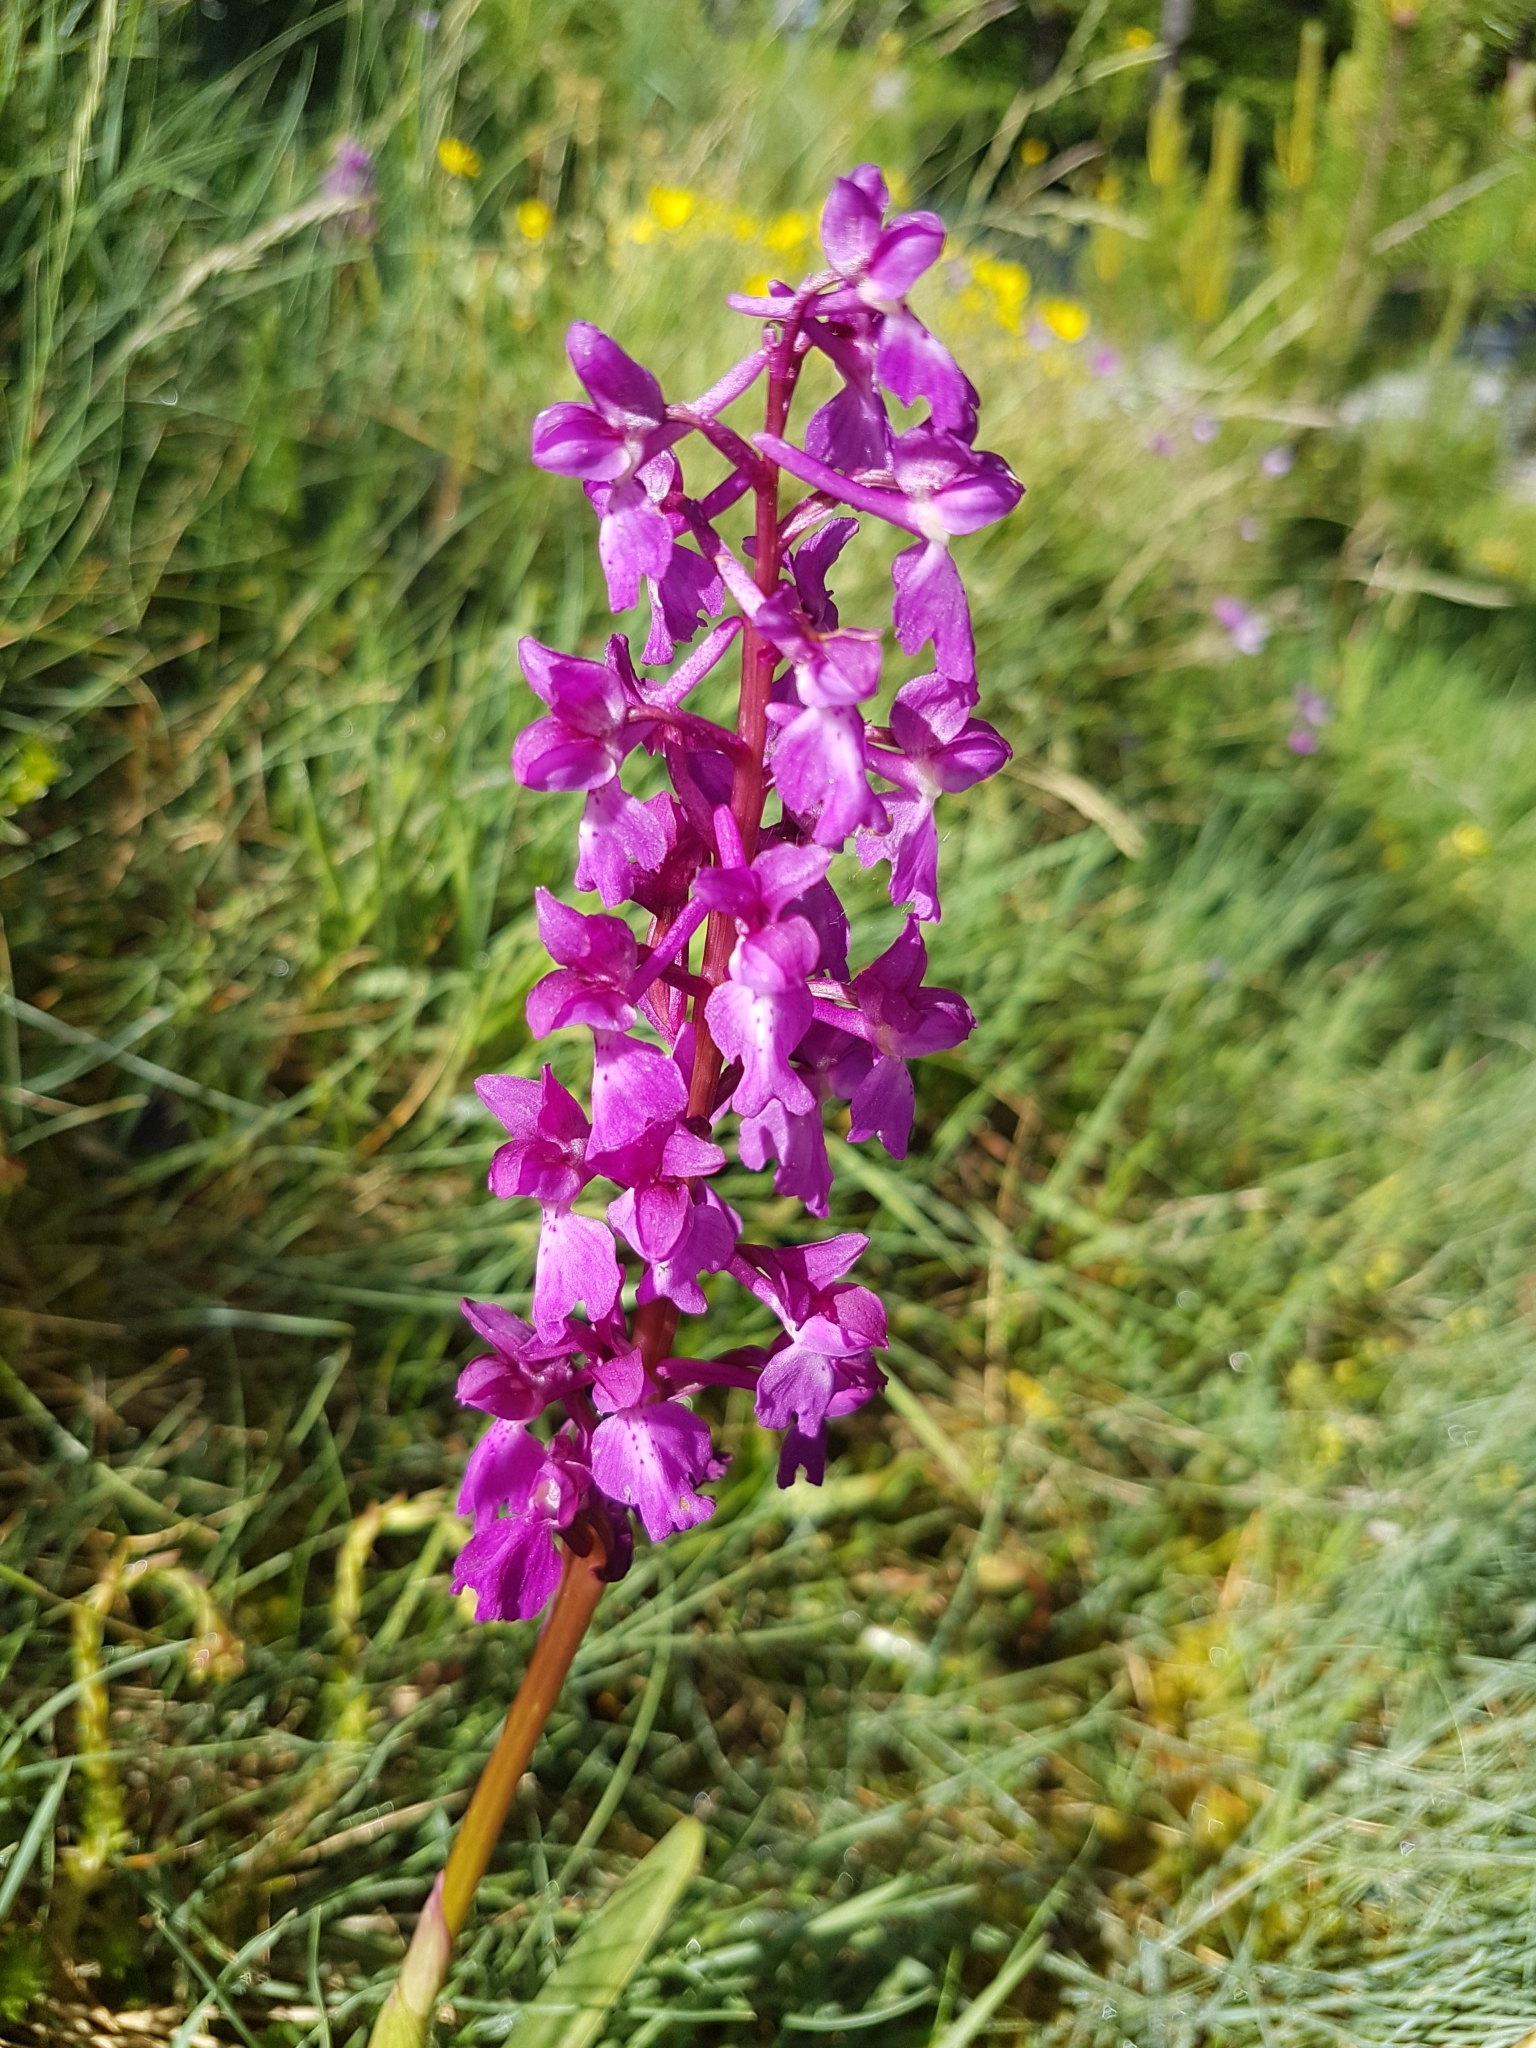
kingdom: Plantae
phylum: Tracheophyta
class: Liliopsida
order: Asparagales
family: Orchidaceae
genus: Orchis
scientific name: Orchis mascula
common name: Early-purple orchid
